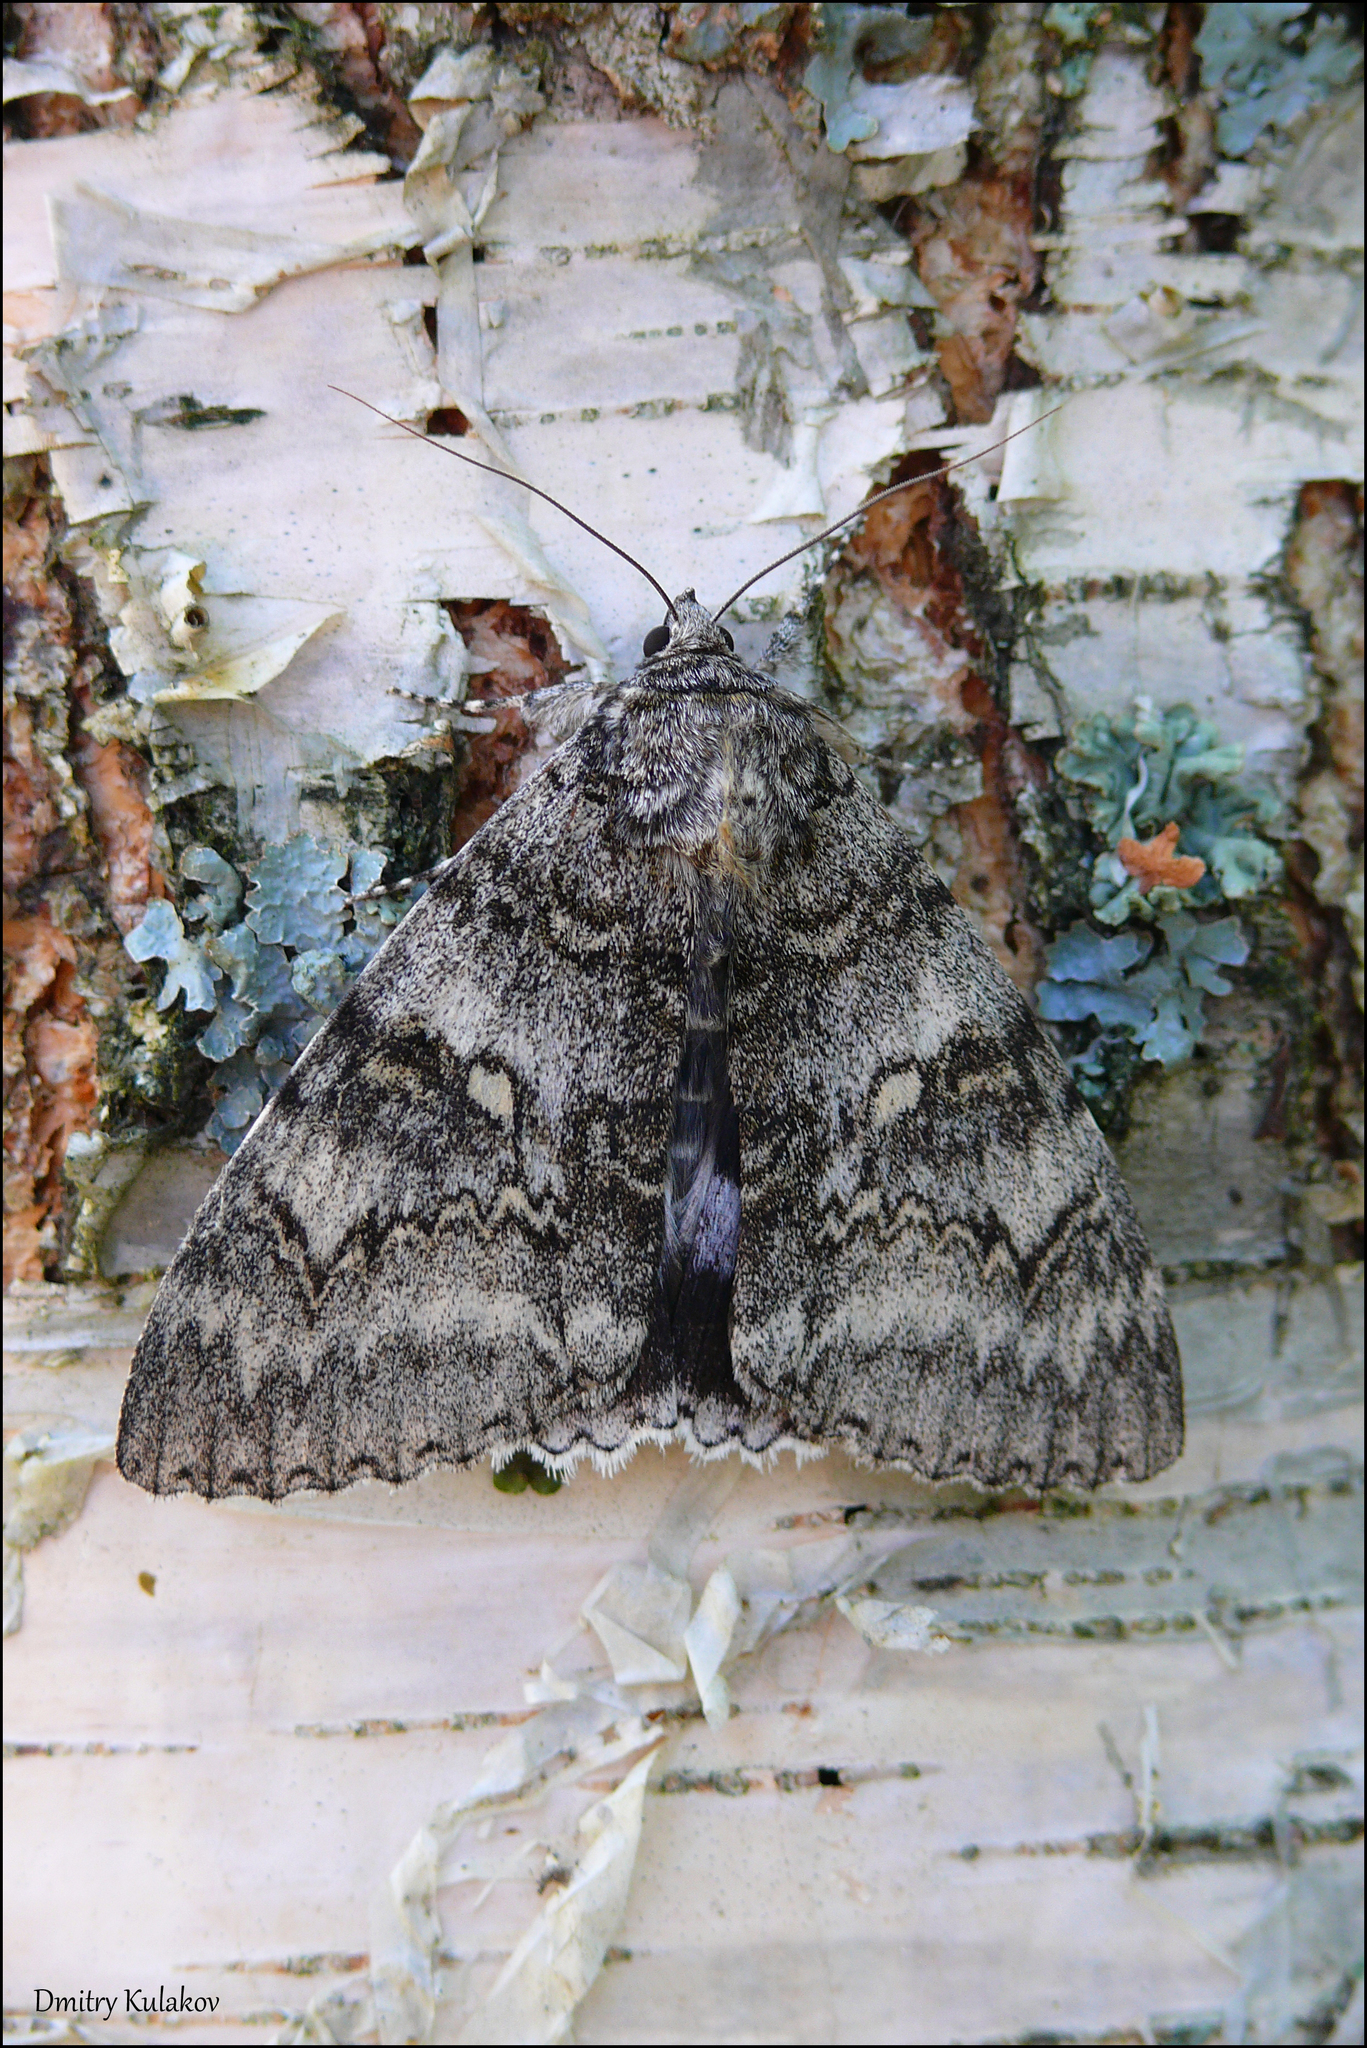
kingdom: Animalia
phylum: Arthropoda
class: Insecta
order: Lepidoptera
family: Erebidae
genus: Catocala
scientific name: Catocala fraxini
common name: Clifden nonpareil
